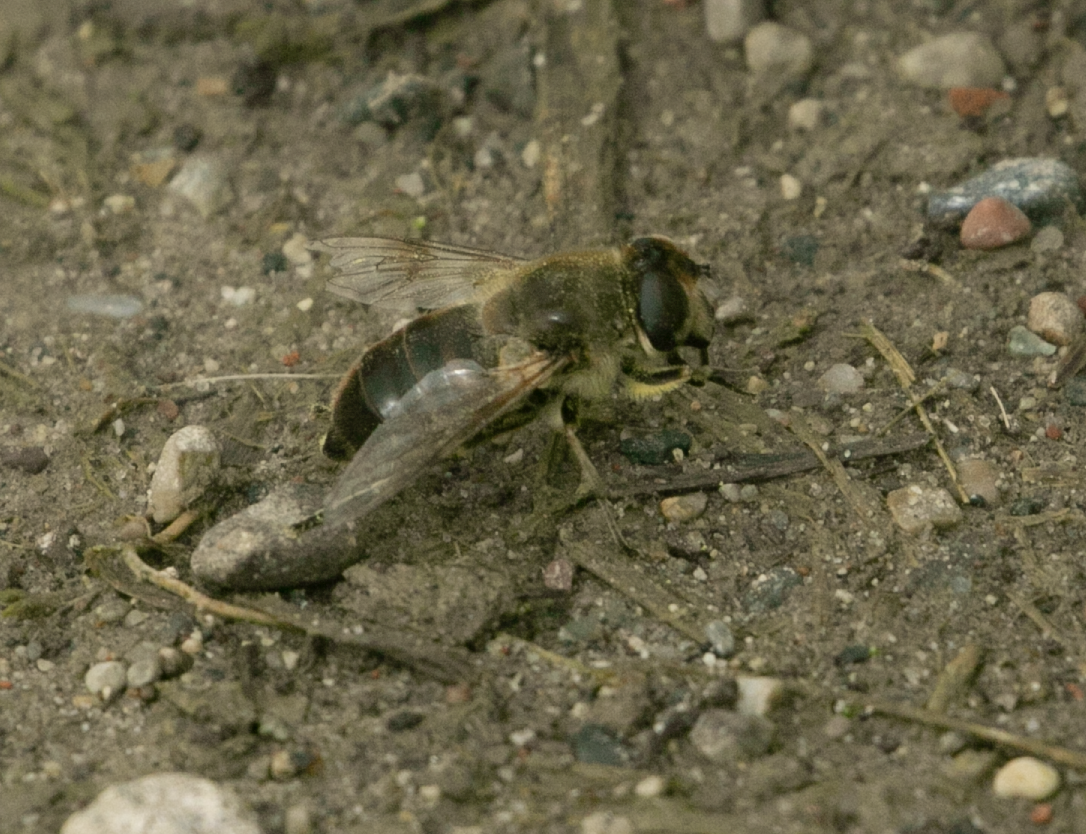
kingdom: Animalia
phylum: Arthropoda
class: Insecta
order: Diptera
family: Syrphidae
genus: Eristalis
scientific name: Eristalis tenax
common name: Drone fly
